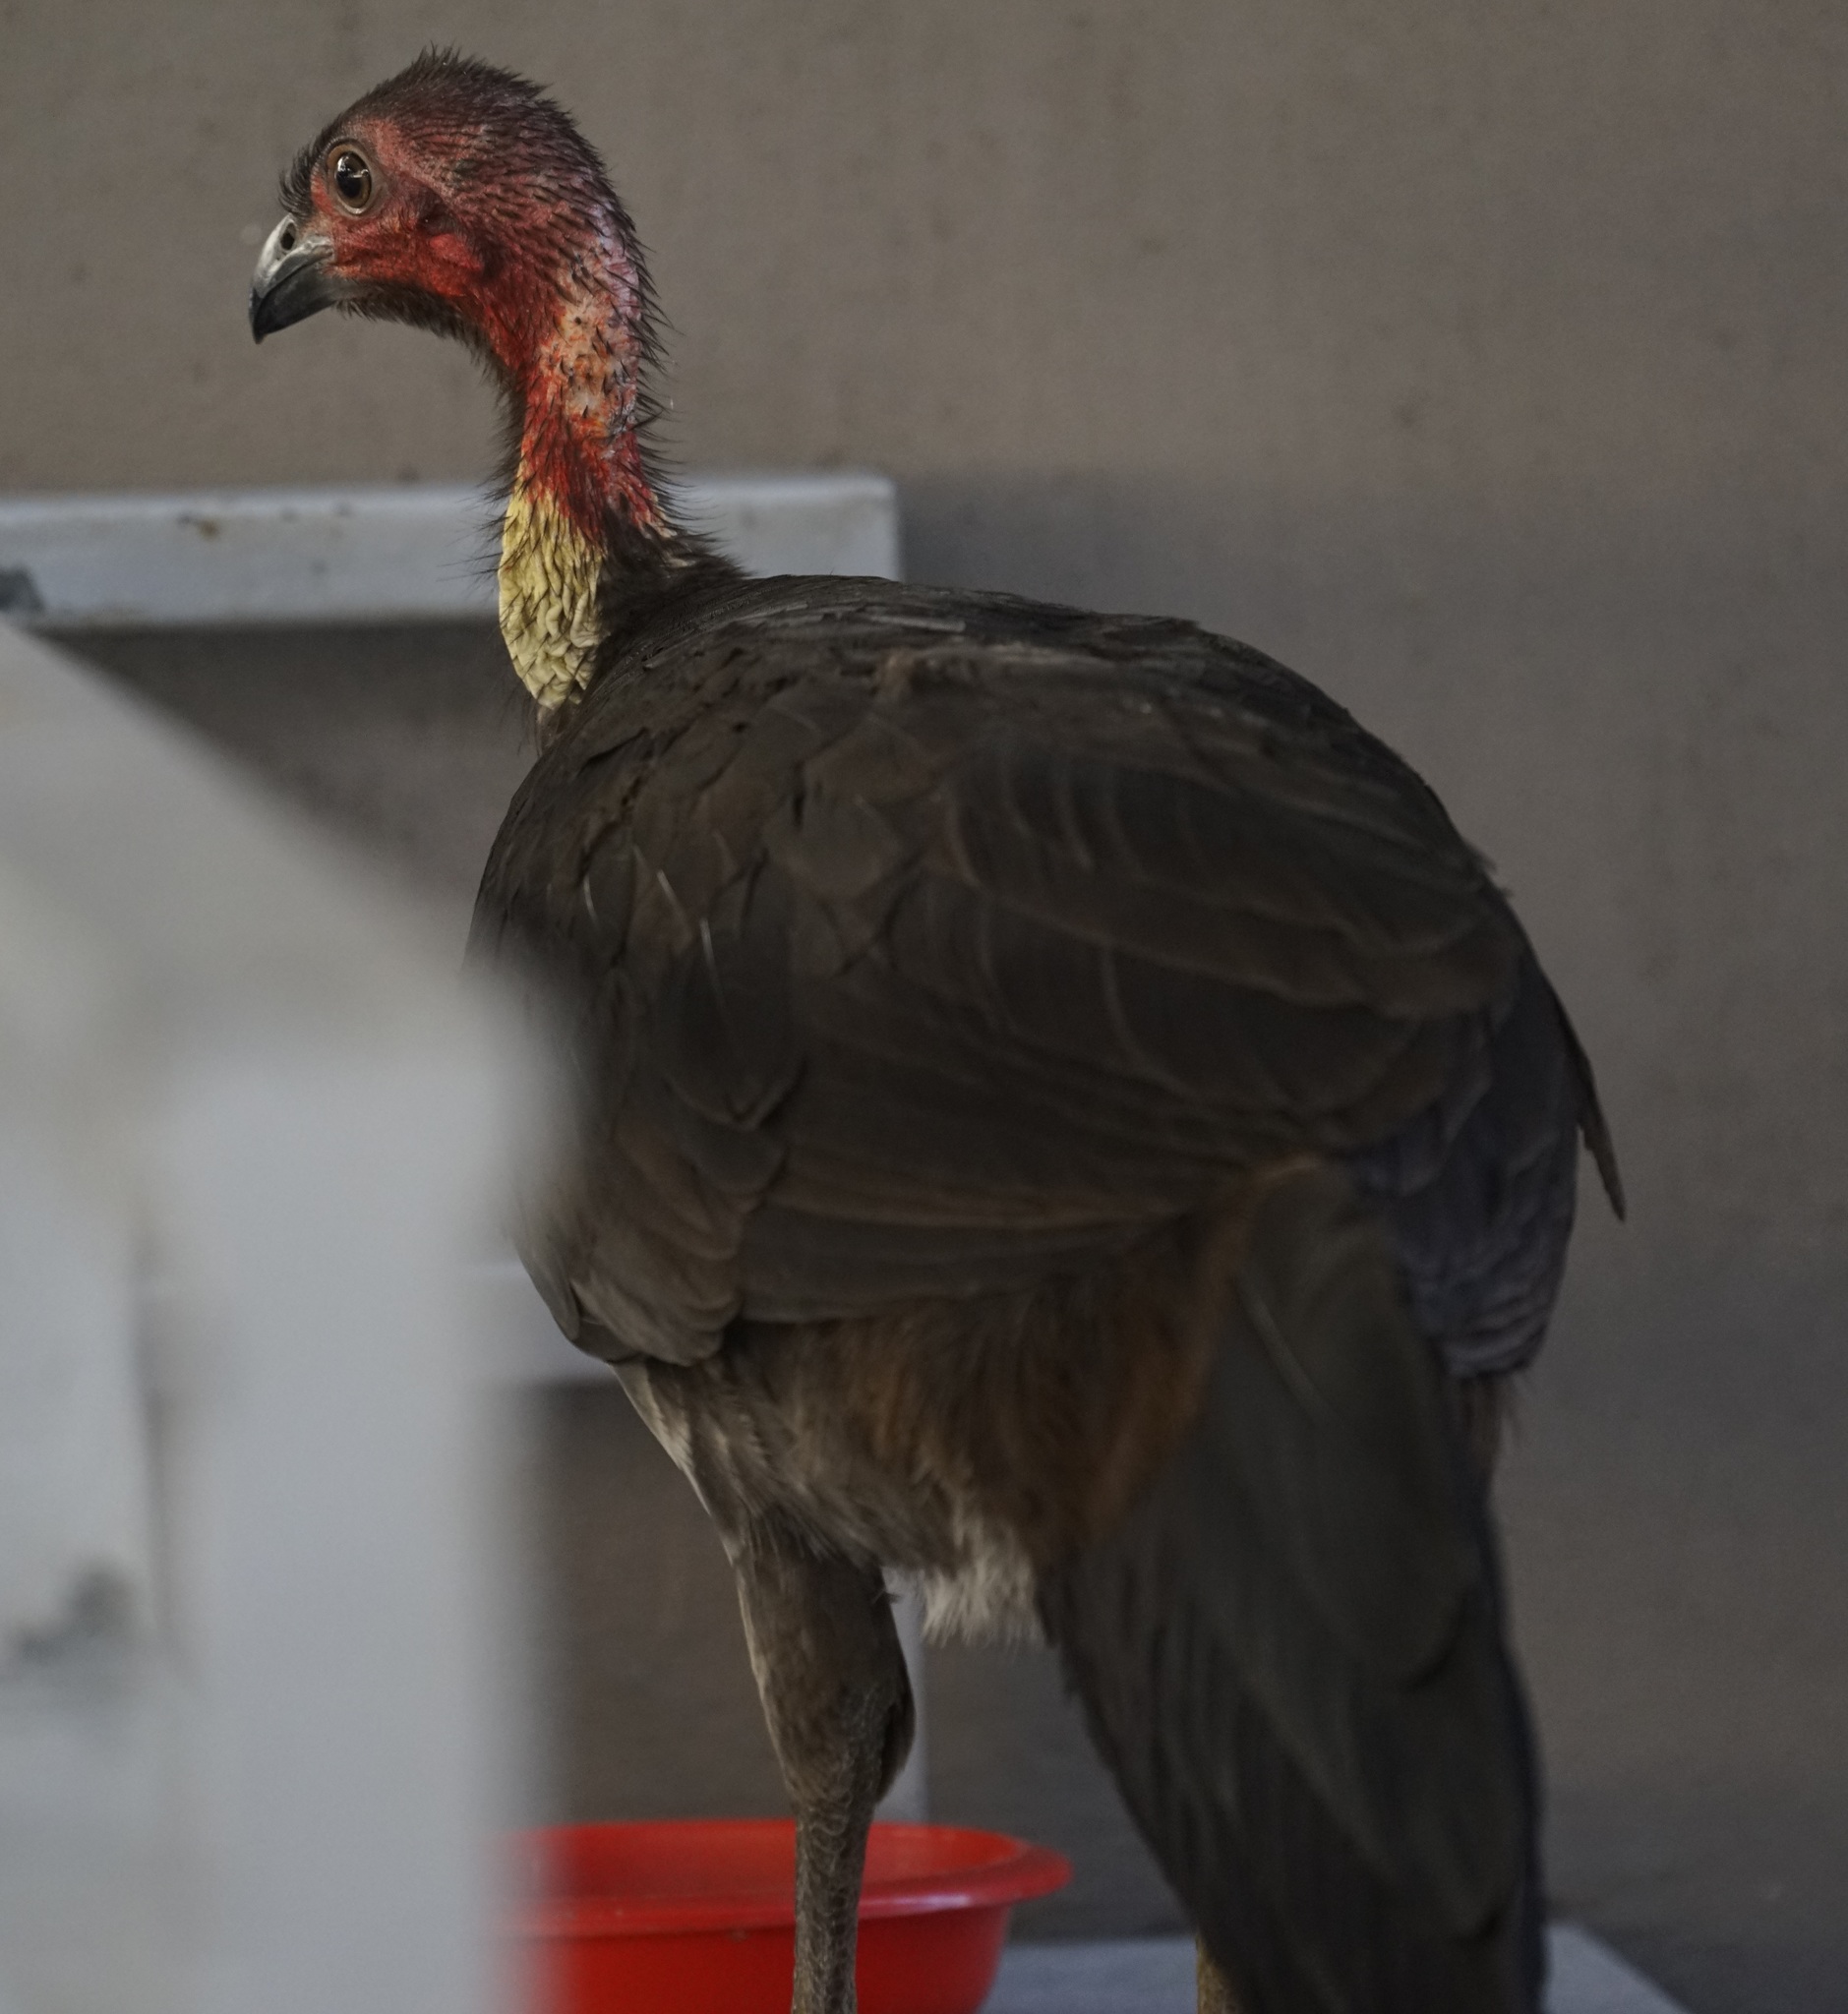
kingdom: Animalia
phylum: Chordata
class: Aves
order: Galliformes
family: Megapodiidae
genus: Alectura
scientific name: Alectura lathami
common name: Australian brushturkey
